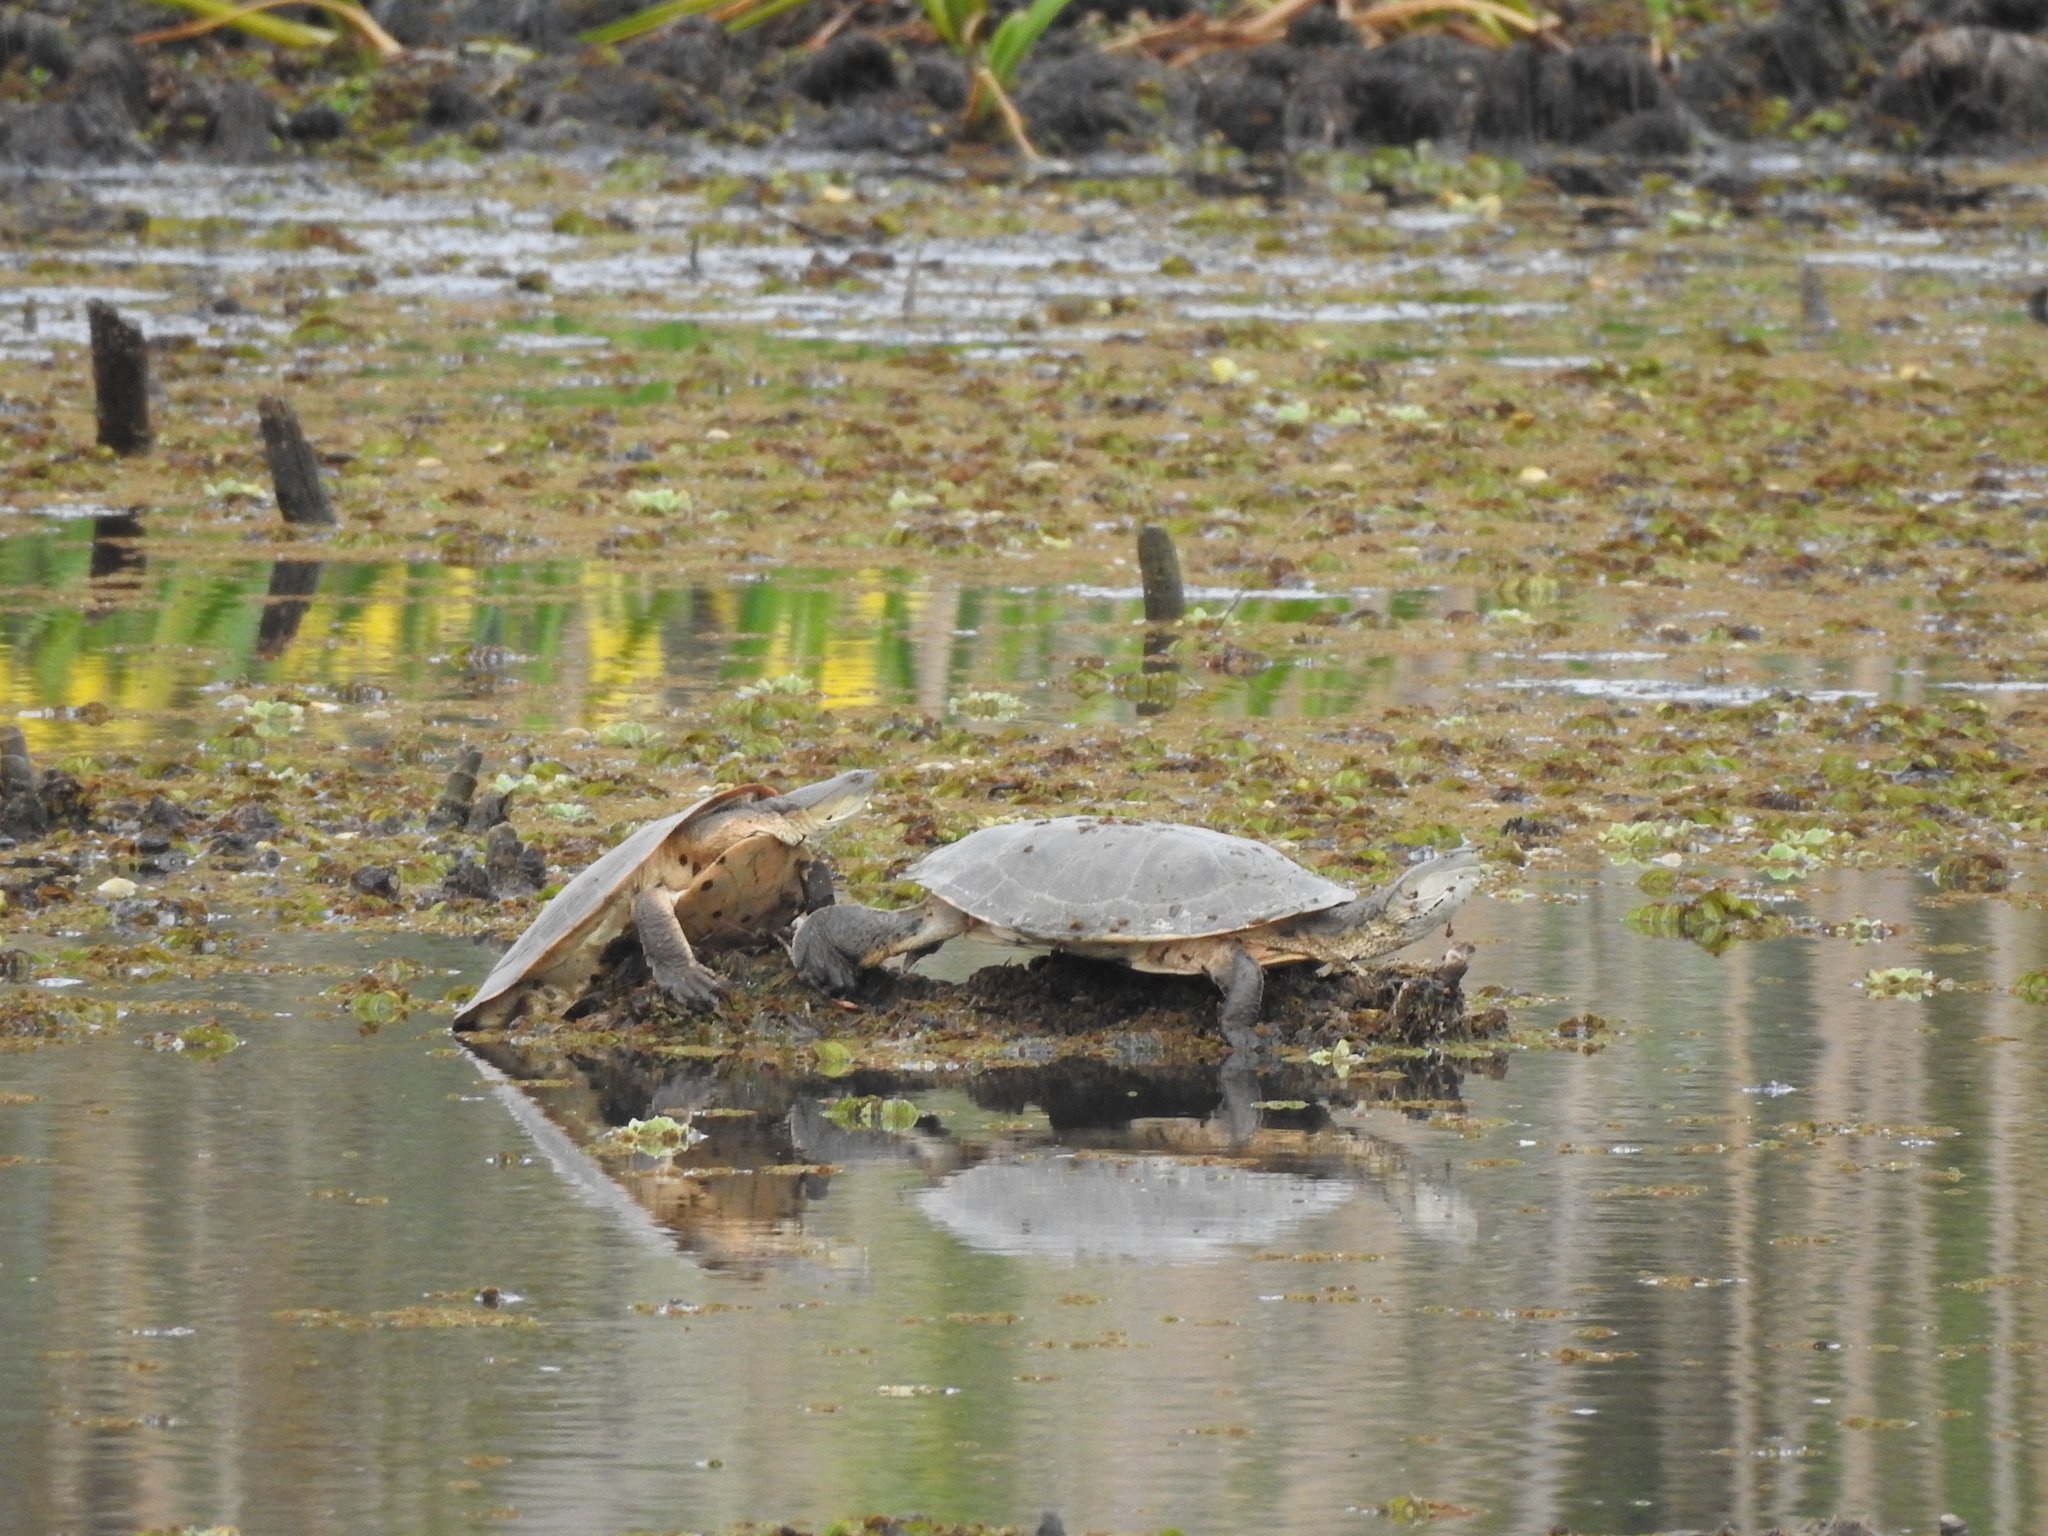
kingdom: Animalia
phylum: Chordata
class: Testudines
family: Chelidae
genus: Phrynops
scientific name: Phrynops hilarii
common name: Side-necked turtle of saint hillaire
